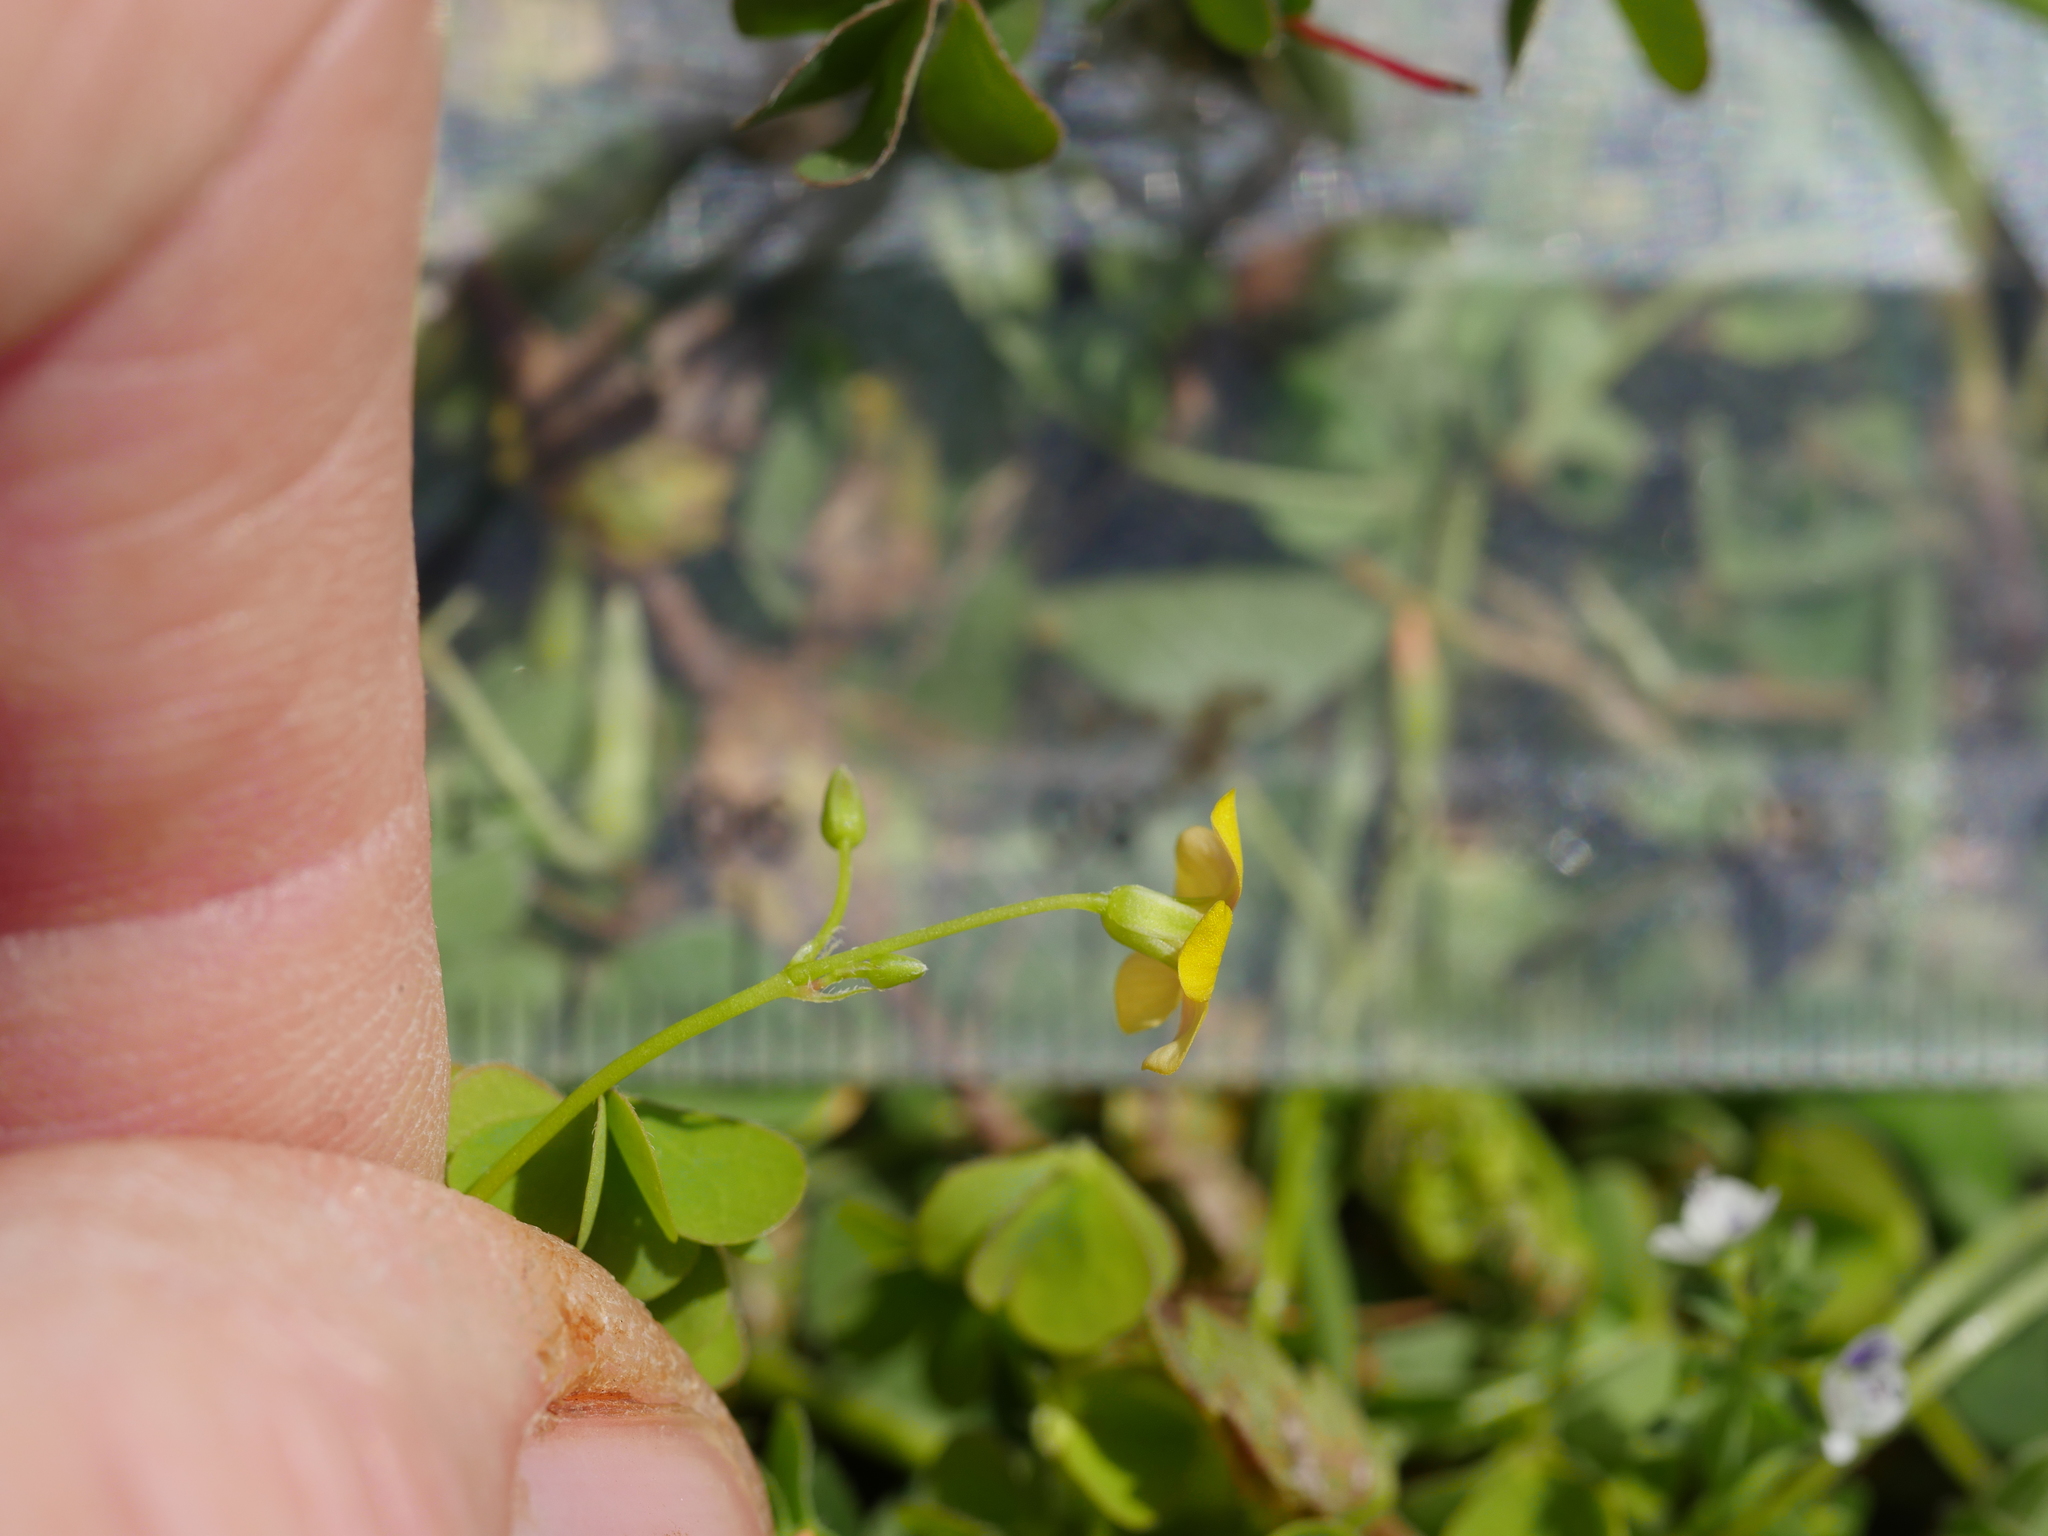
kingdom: Plantae
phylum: Tracheophyta
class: Magnoliopsida
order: Oxalidales
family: Oxalidaceae
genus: Oxalis
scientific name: Oxalis rubens
